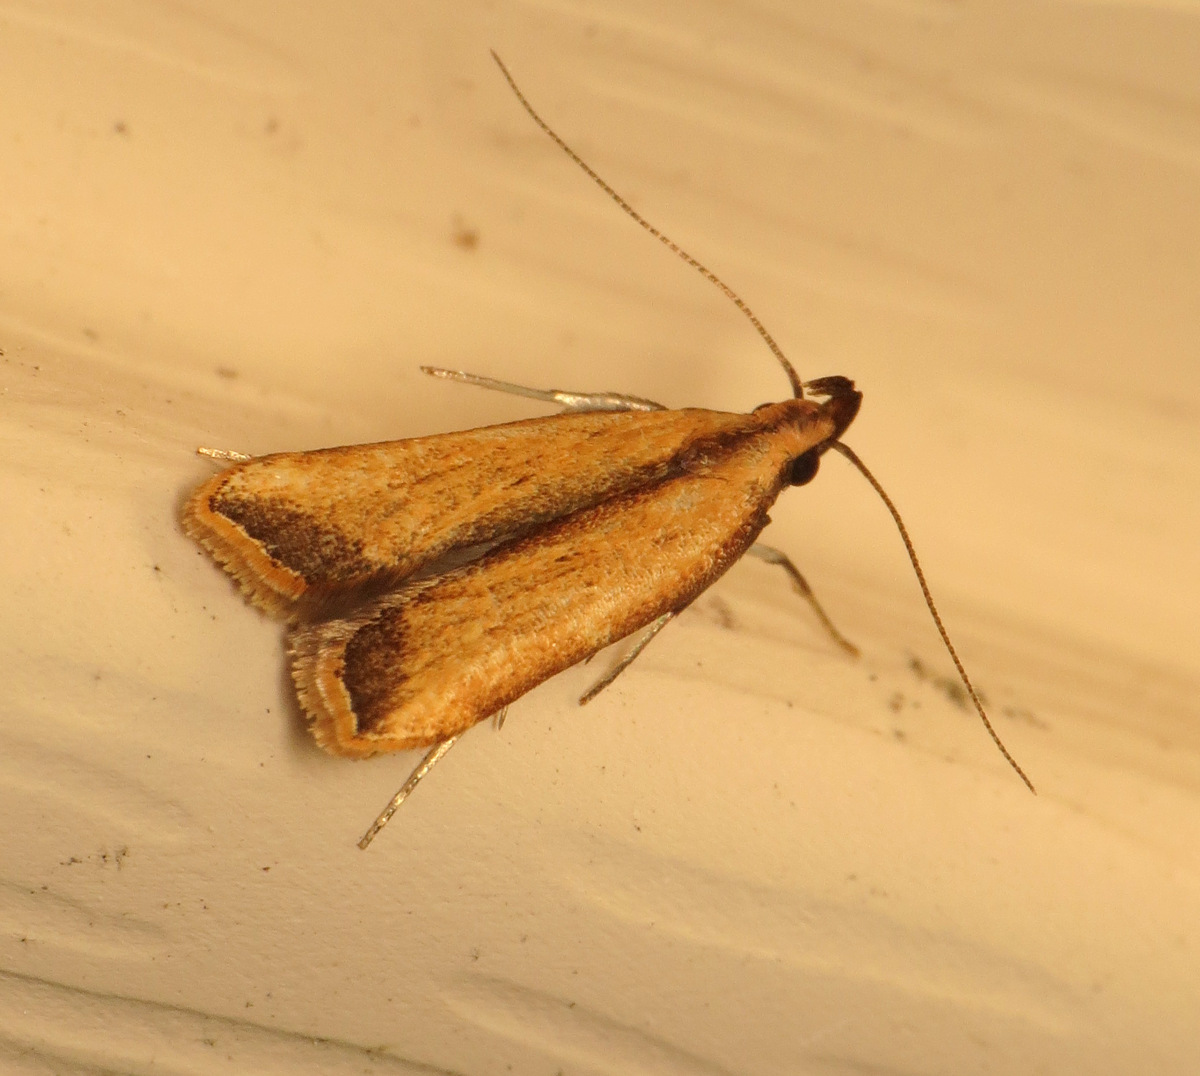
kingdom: Animalia
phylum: Arthropoda
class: Insecta
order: Lepidoptera
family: Gelechiidae
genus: Dichomeris
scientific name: Dichomeris heriguronis
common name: Black-edged dichomeris moth
